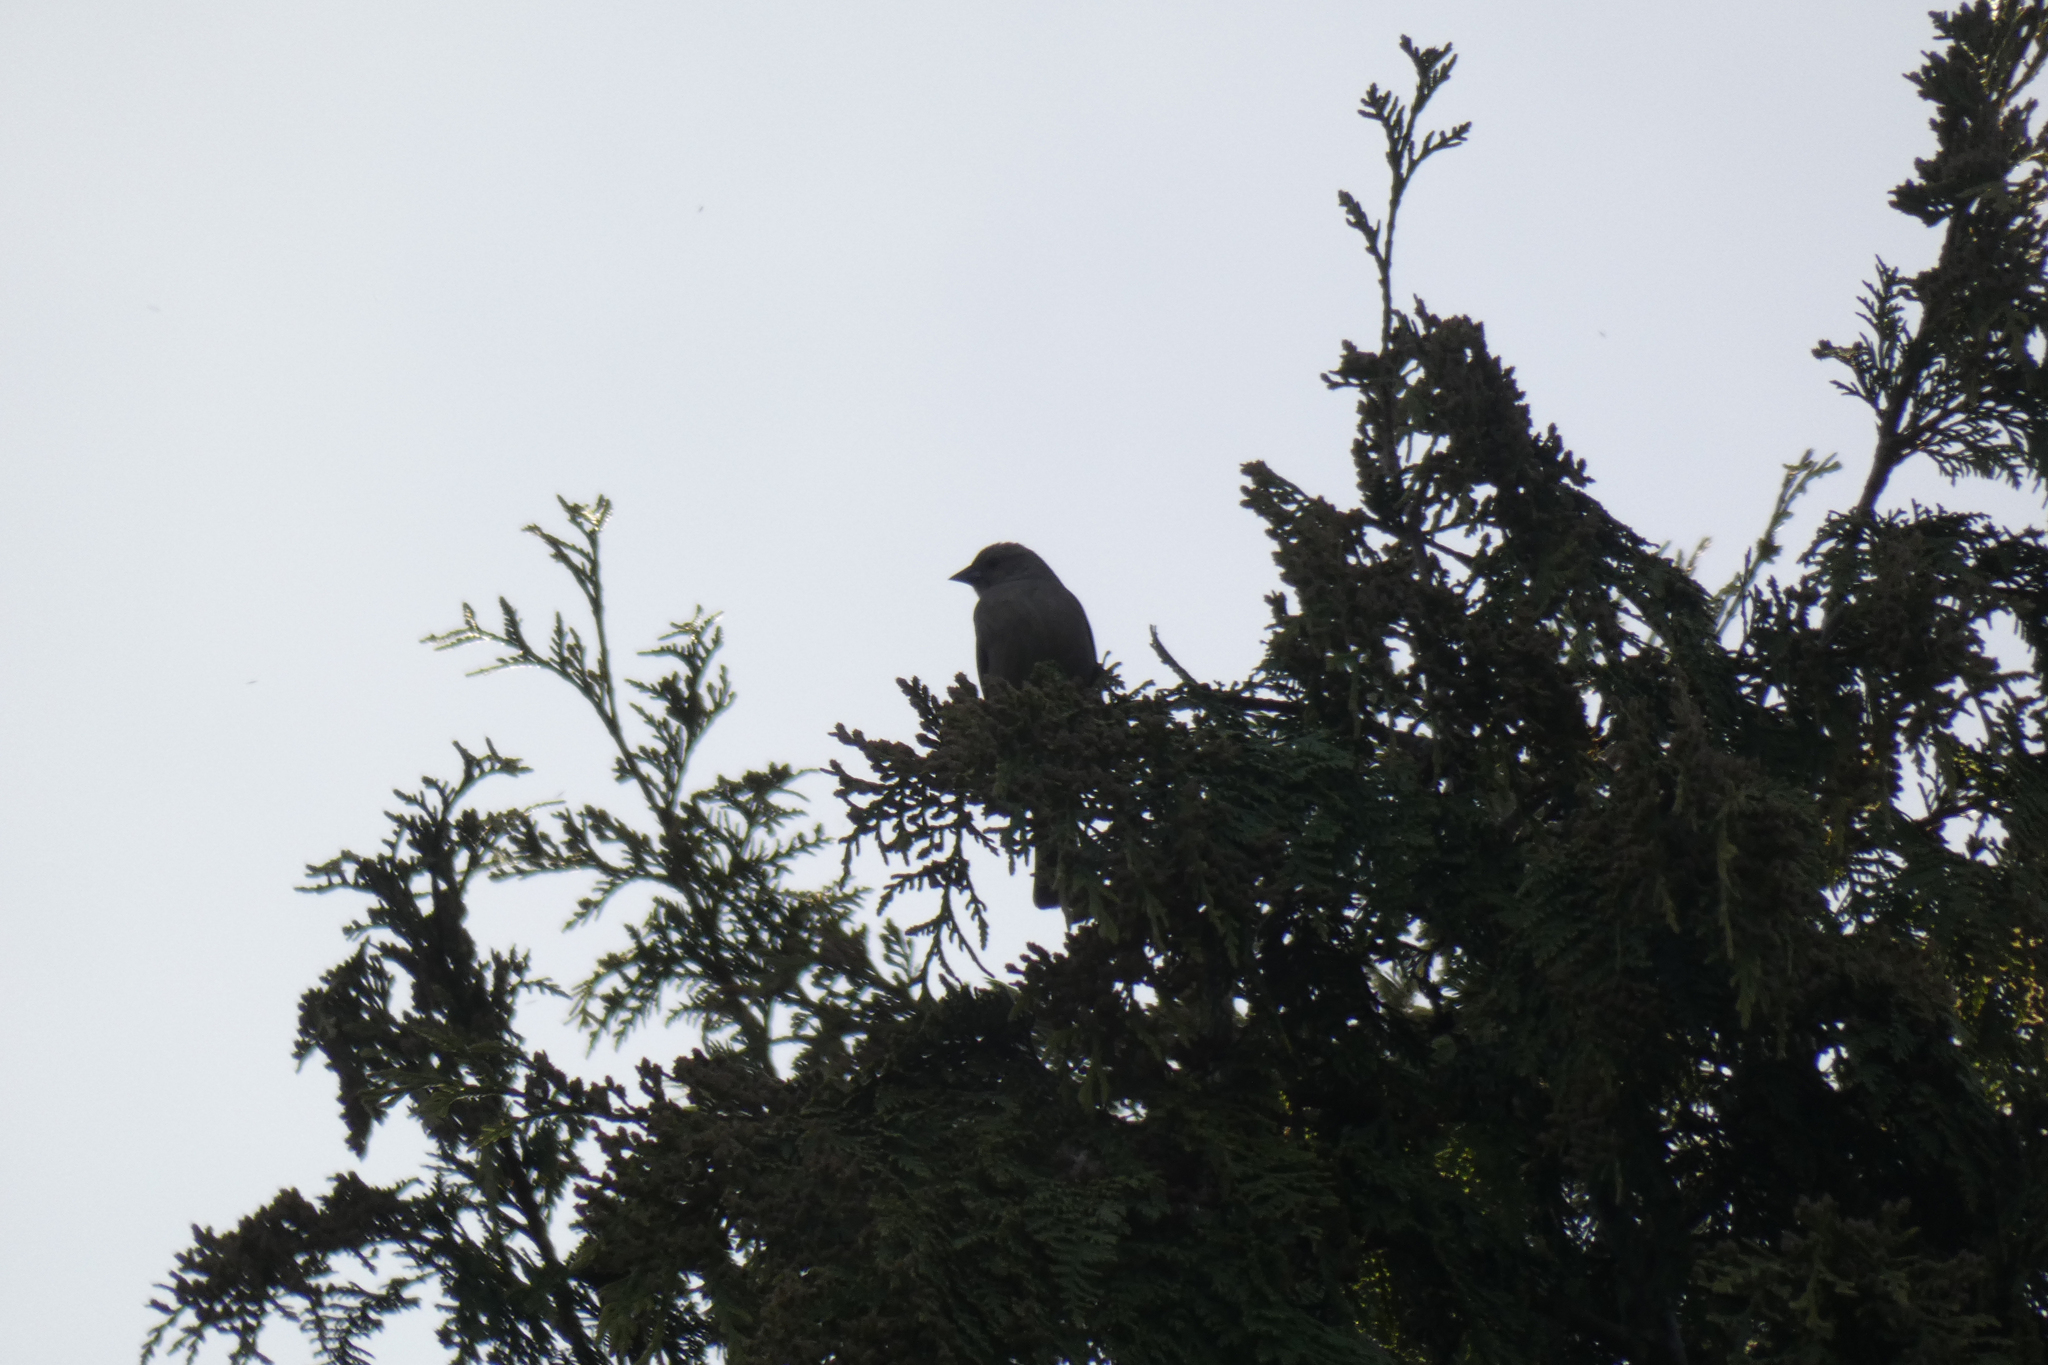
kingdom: Animalia
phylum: Chordata
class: Aves
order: Passeriformes
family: Icteridae
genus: Molothrus
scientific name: Molothrus ater
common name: Brown-headed cowbird
